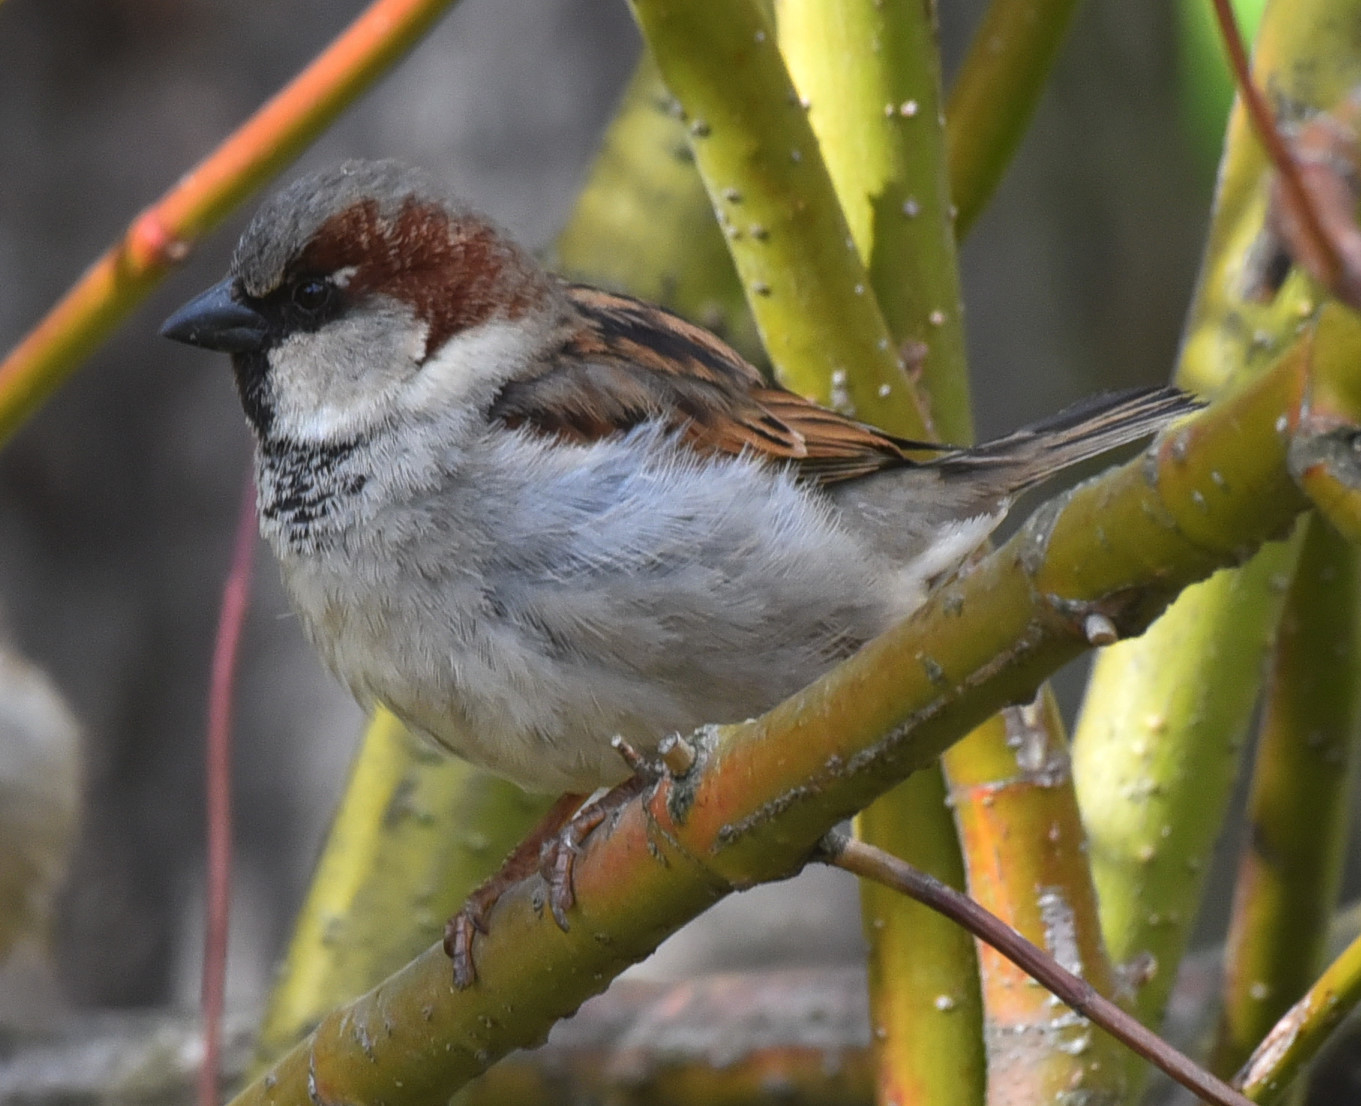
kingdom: Animalia
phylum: Chordata
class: Aves
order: Passeriformes
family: Passeridae
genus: Passer
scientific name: Passer domesticus
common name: House sparrow
